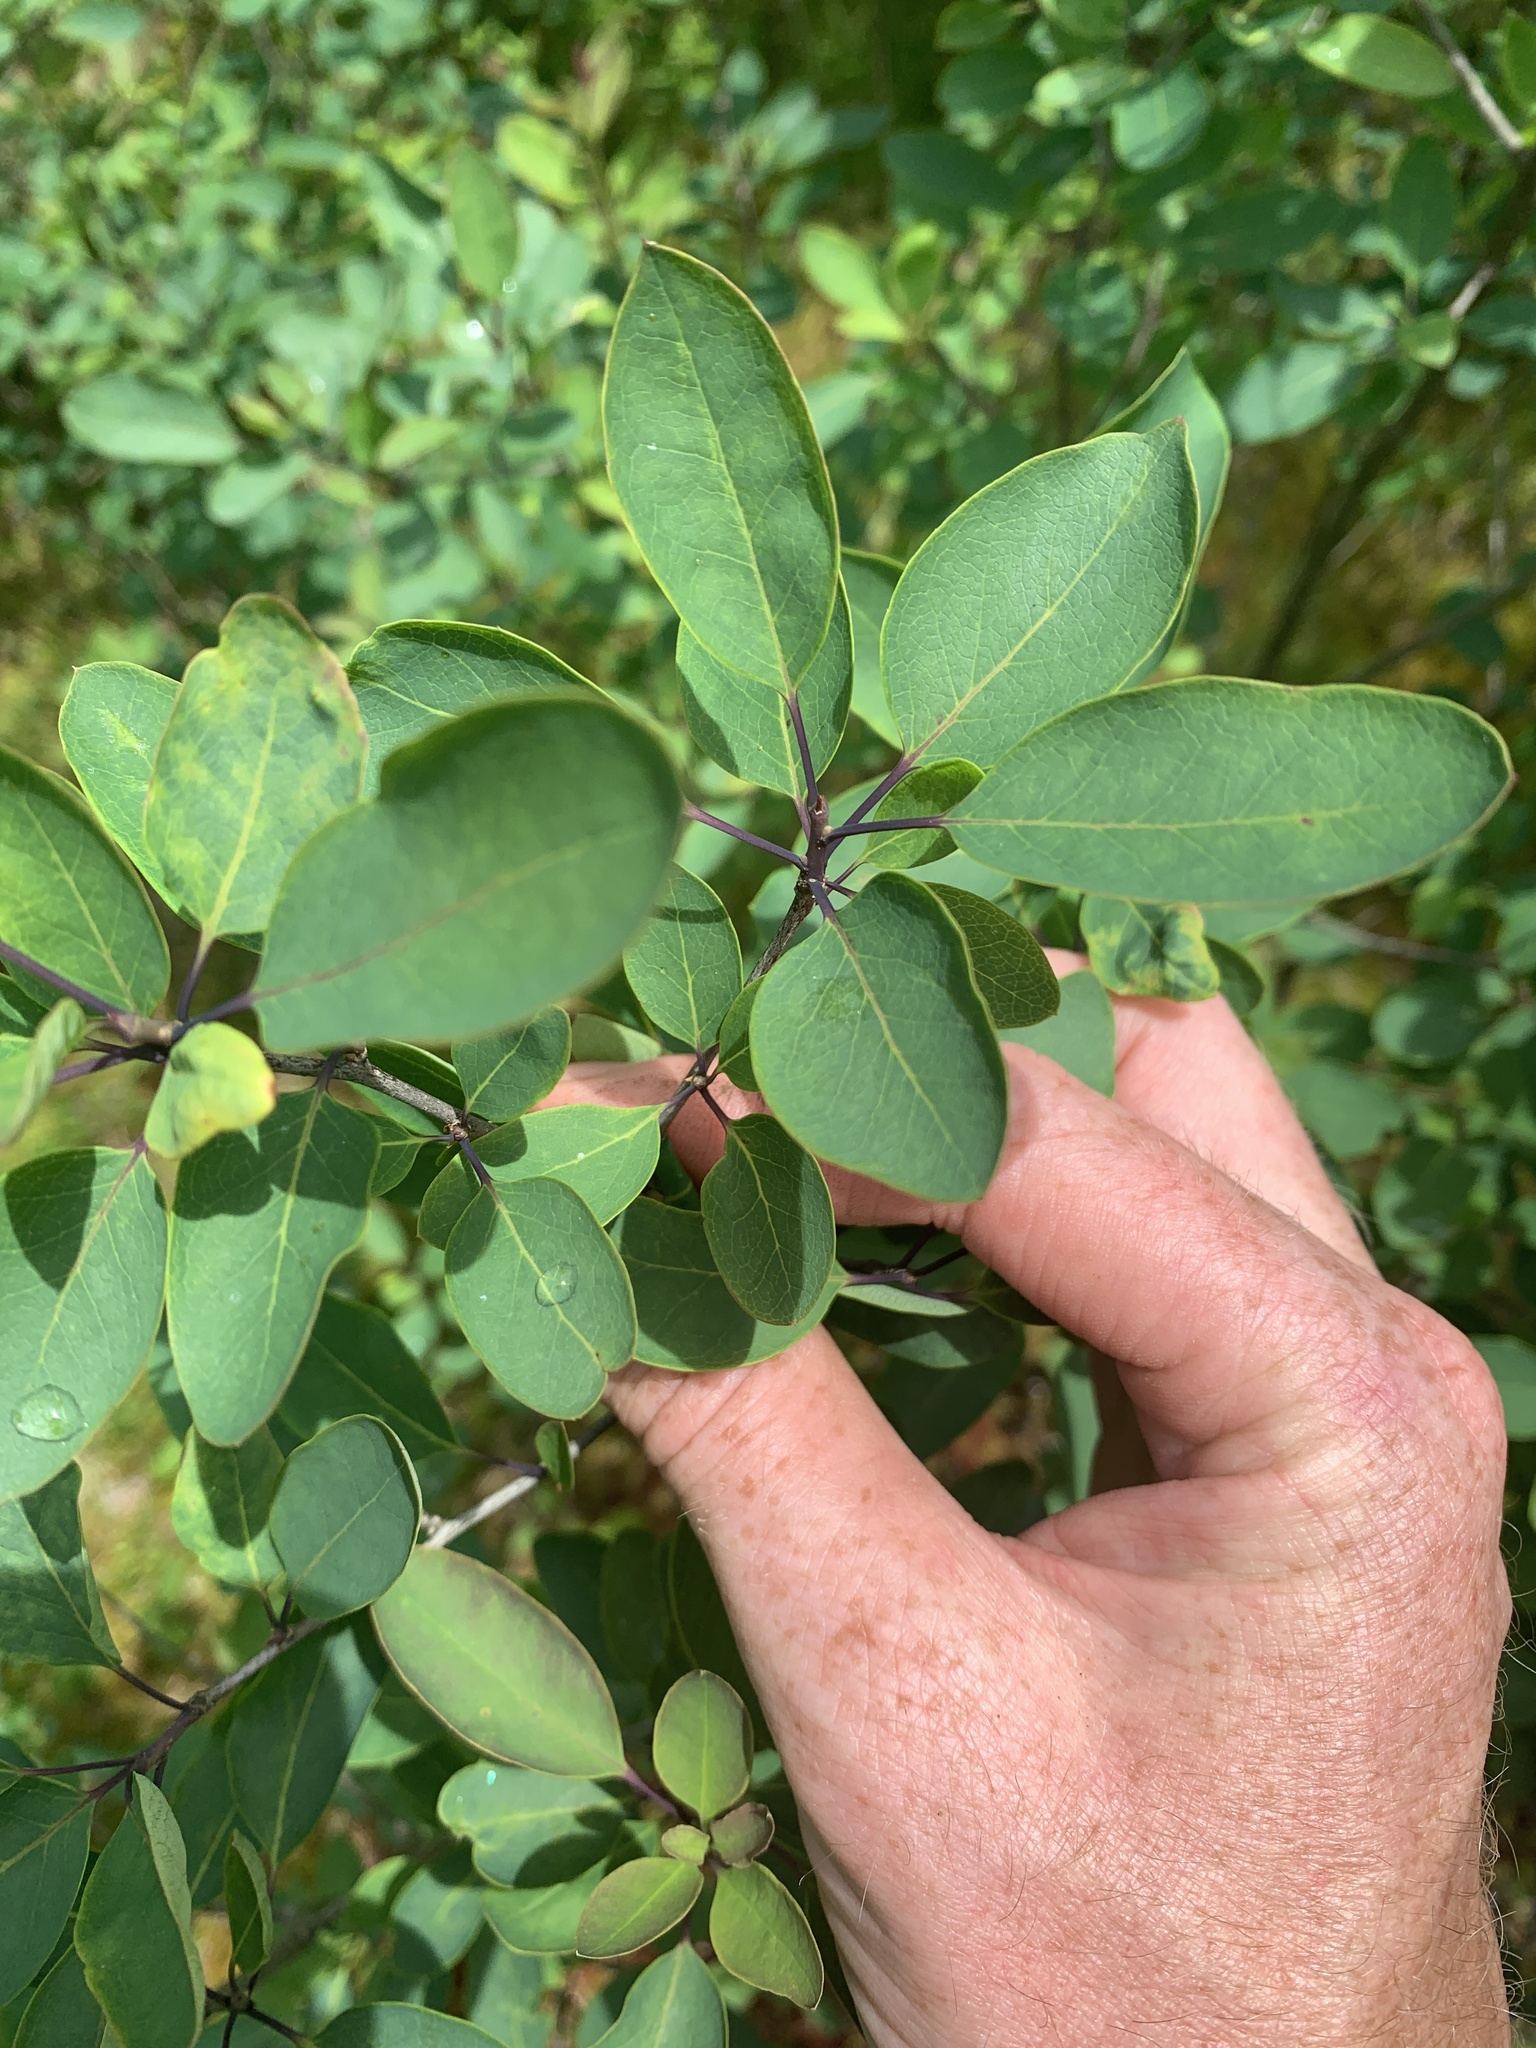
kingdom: Plantae
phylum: Tracheophyta
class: Magnoliopsida
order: Aquifoliales
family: Aquifoliaceae
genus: Ilex
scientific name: Ilex mucronata
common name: Catberry
